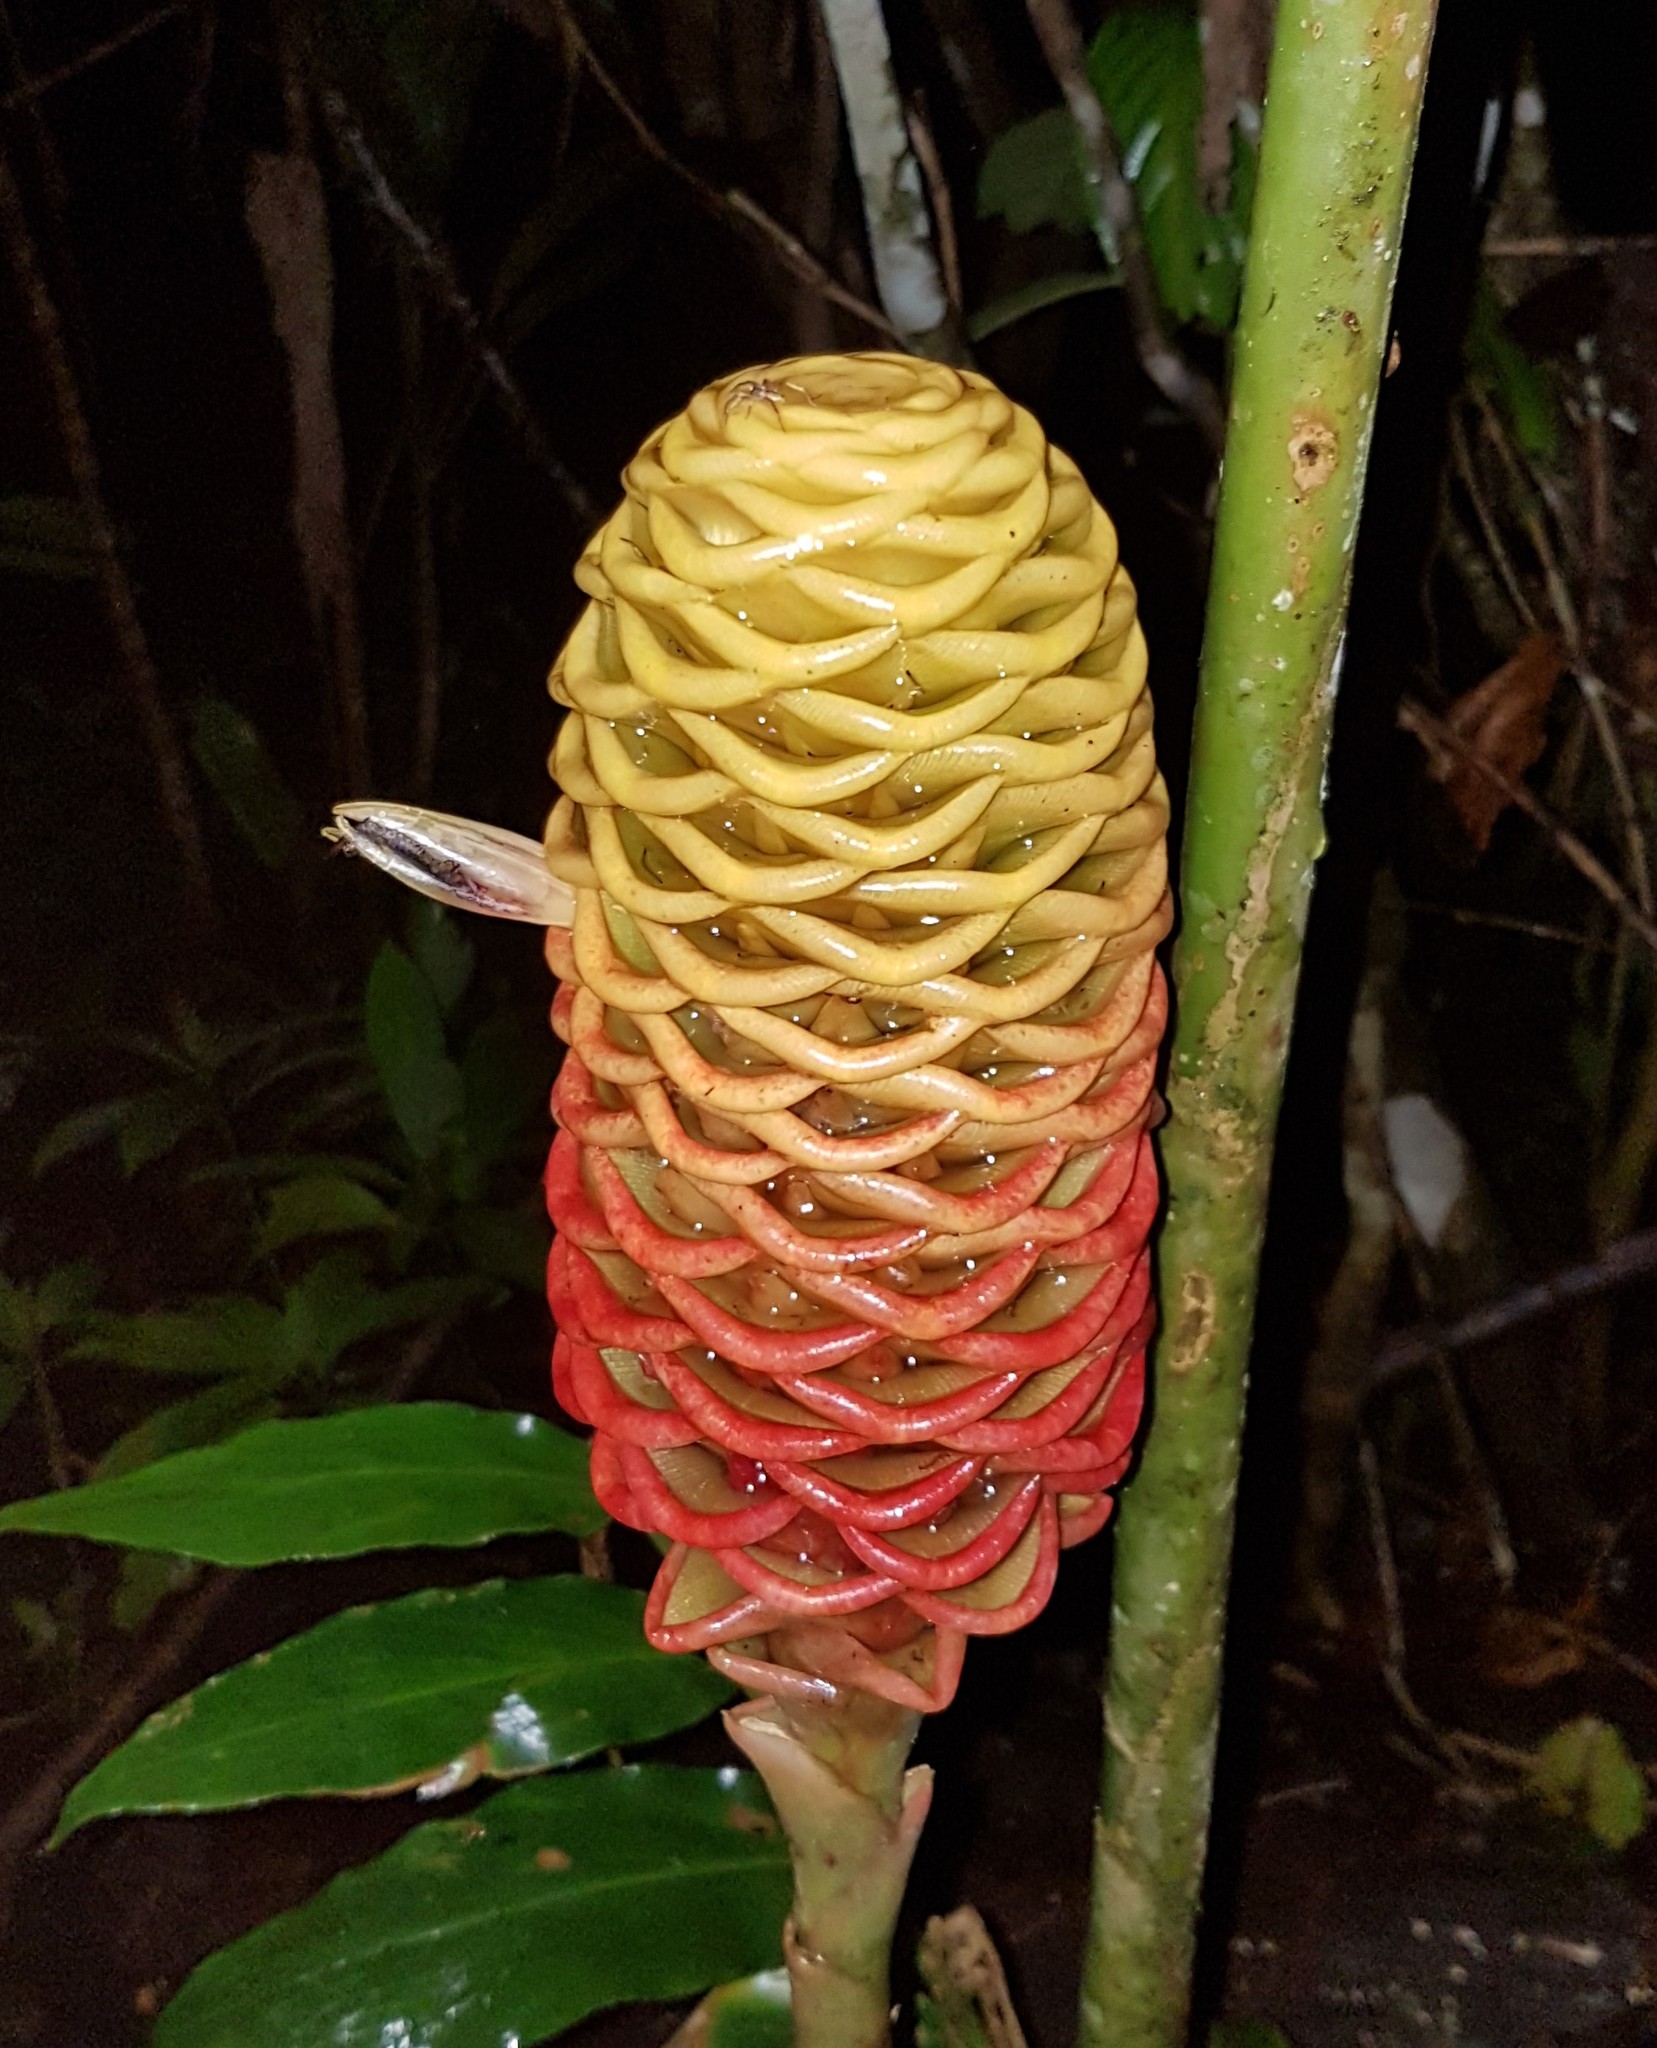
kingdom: Plantae
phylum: Tracheophyta
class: Liliopsida
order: Zingiberales
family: Zingiberaceae
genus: Zingiber
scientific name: Zingiber spectabile
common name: Beehive ginger
